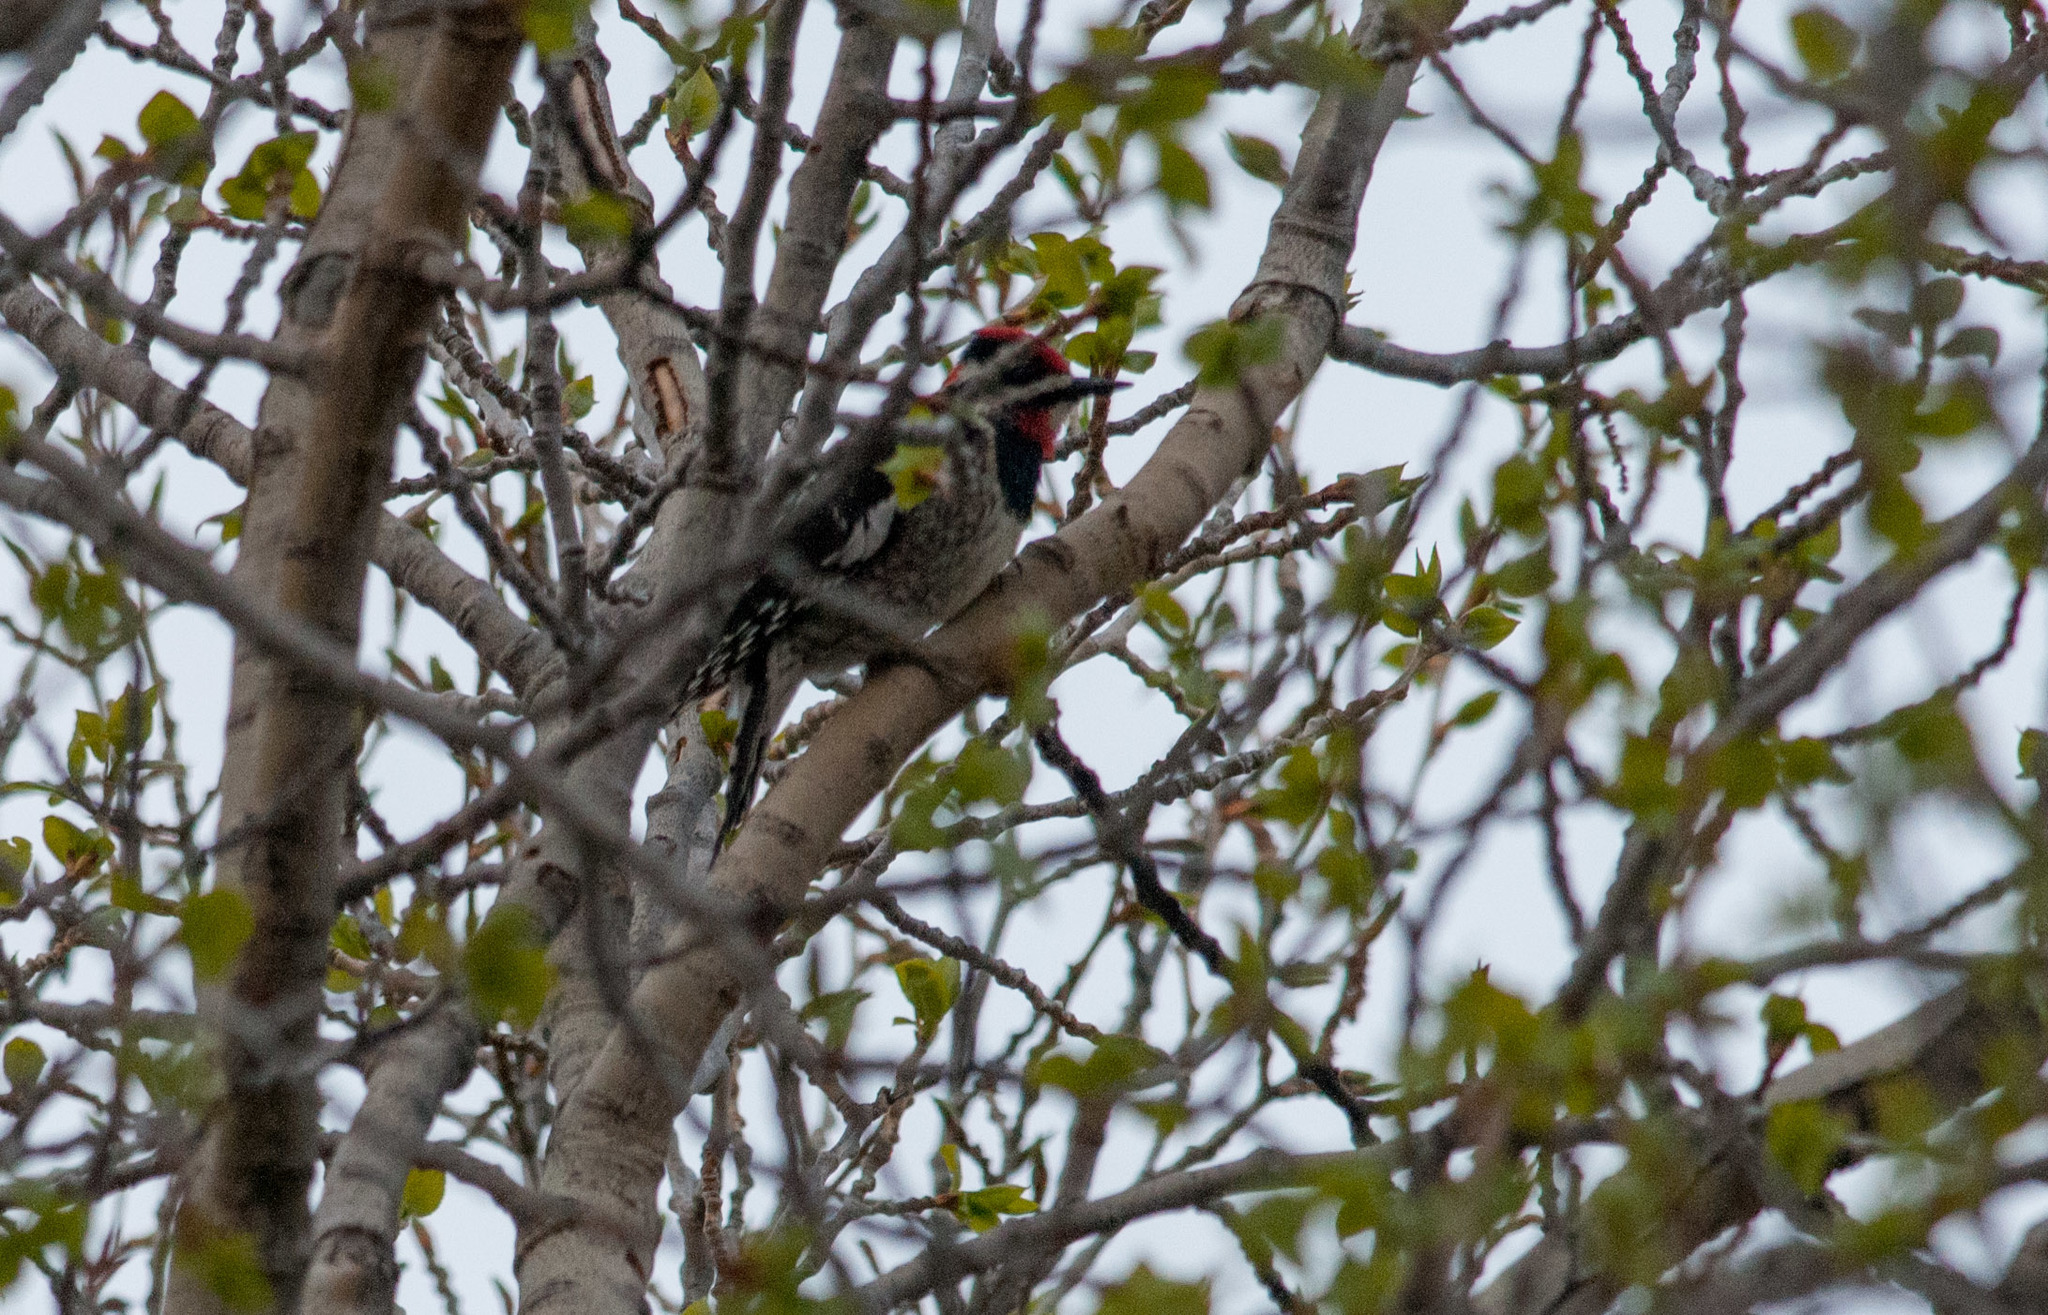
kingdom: Animalia
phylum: Chordata
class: Aves
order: Piciformes
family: Picidae
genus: Sphyrapicus
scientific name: Sphyrapicus nuchalis
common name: Red-naped sapsucker
